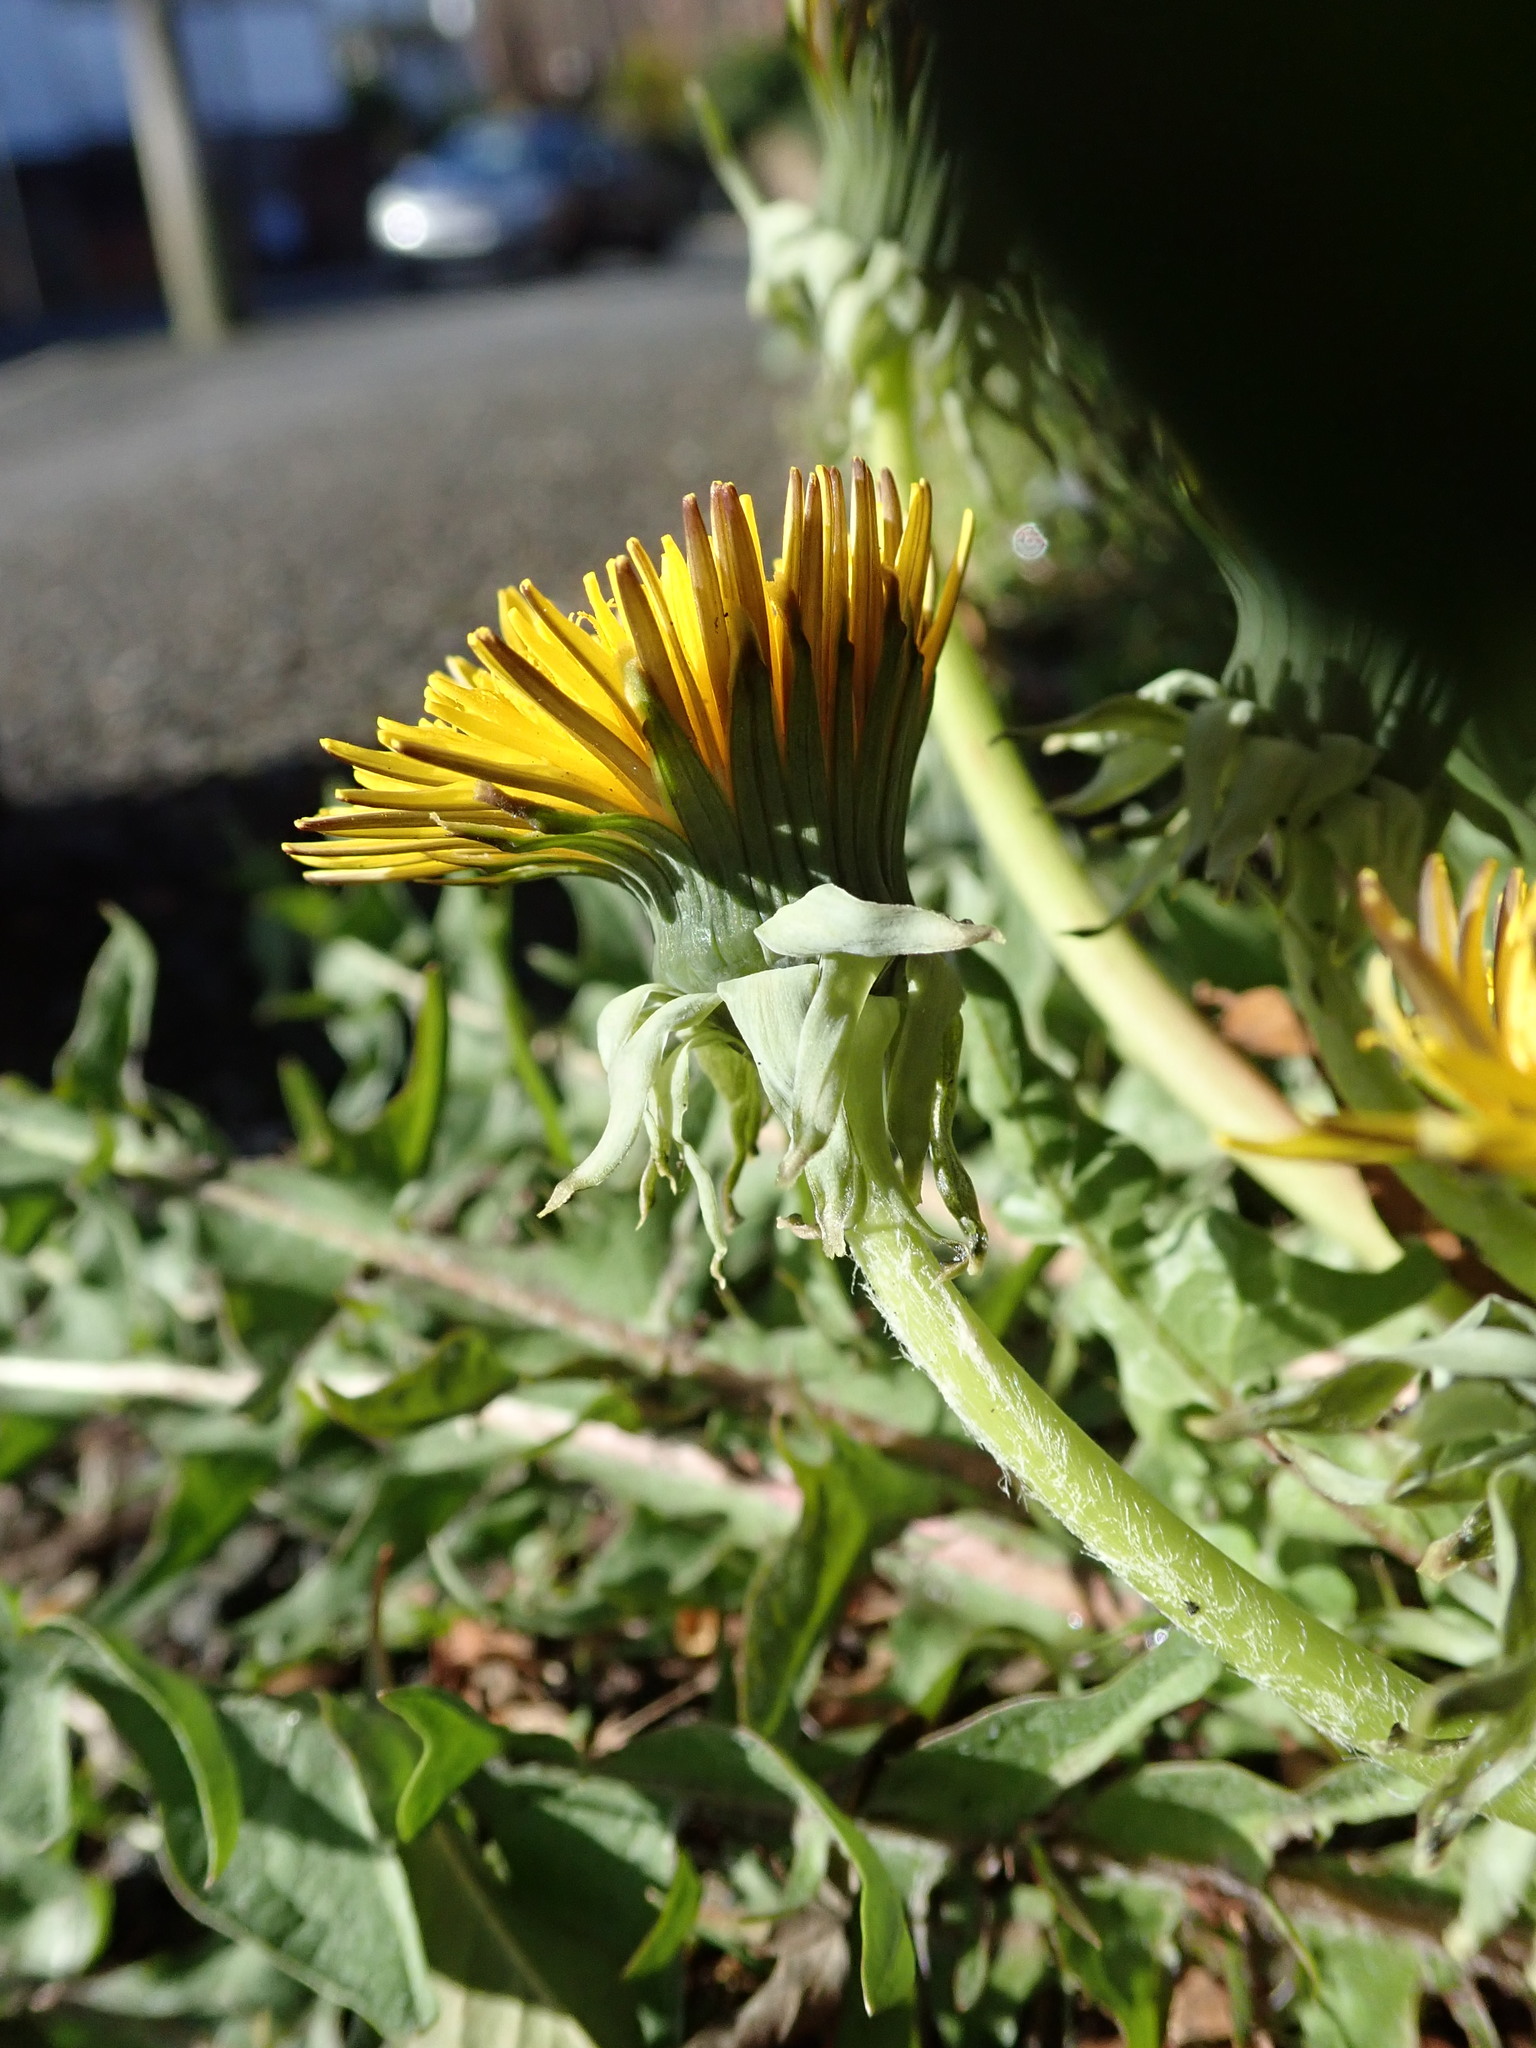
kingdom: Plantae
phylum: Tracheophyta
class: Magnoliopsida
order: Asterales
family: Asteraceae
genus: Taraxacum
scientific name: Taraxacum officinale
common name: Common dandelion
